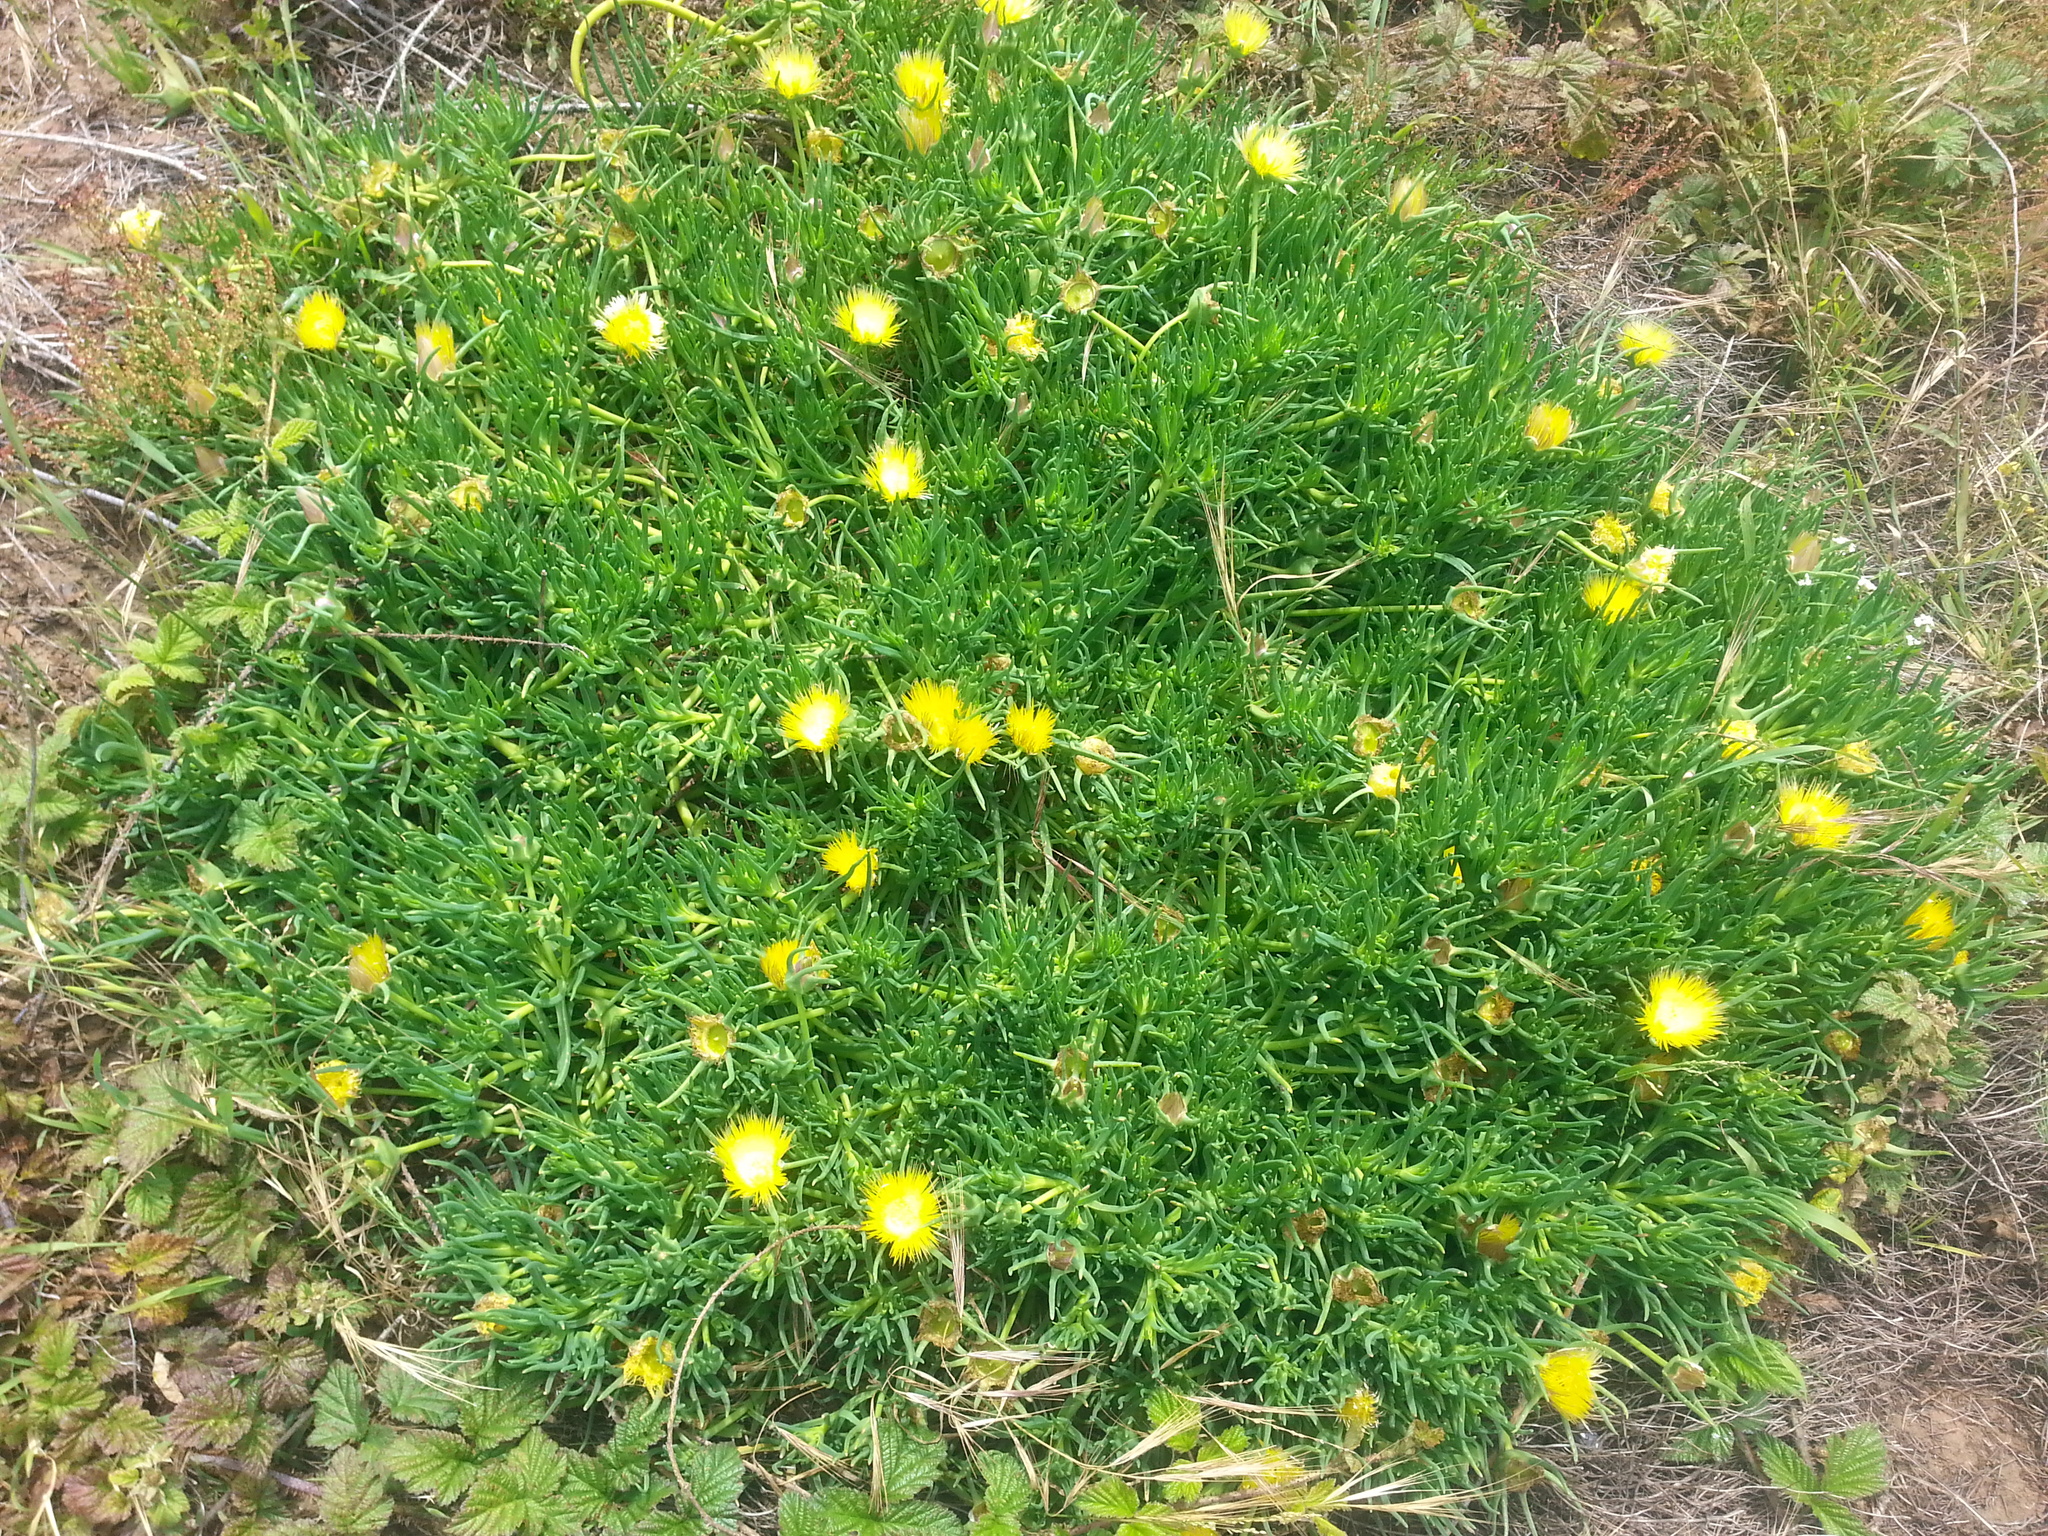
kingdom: Plantae
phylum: Tracheophyta
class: Magnoliopsida
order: Caryophyllales
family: Aizoaceae
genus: Conicosia
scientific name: Conicosia pugioniformis
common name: Narrow-leaved iceplant
